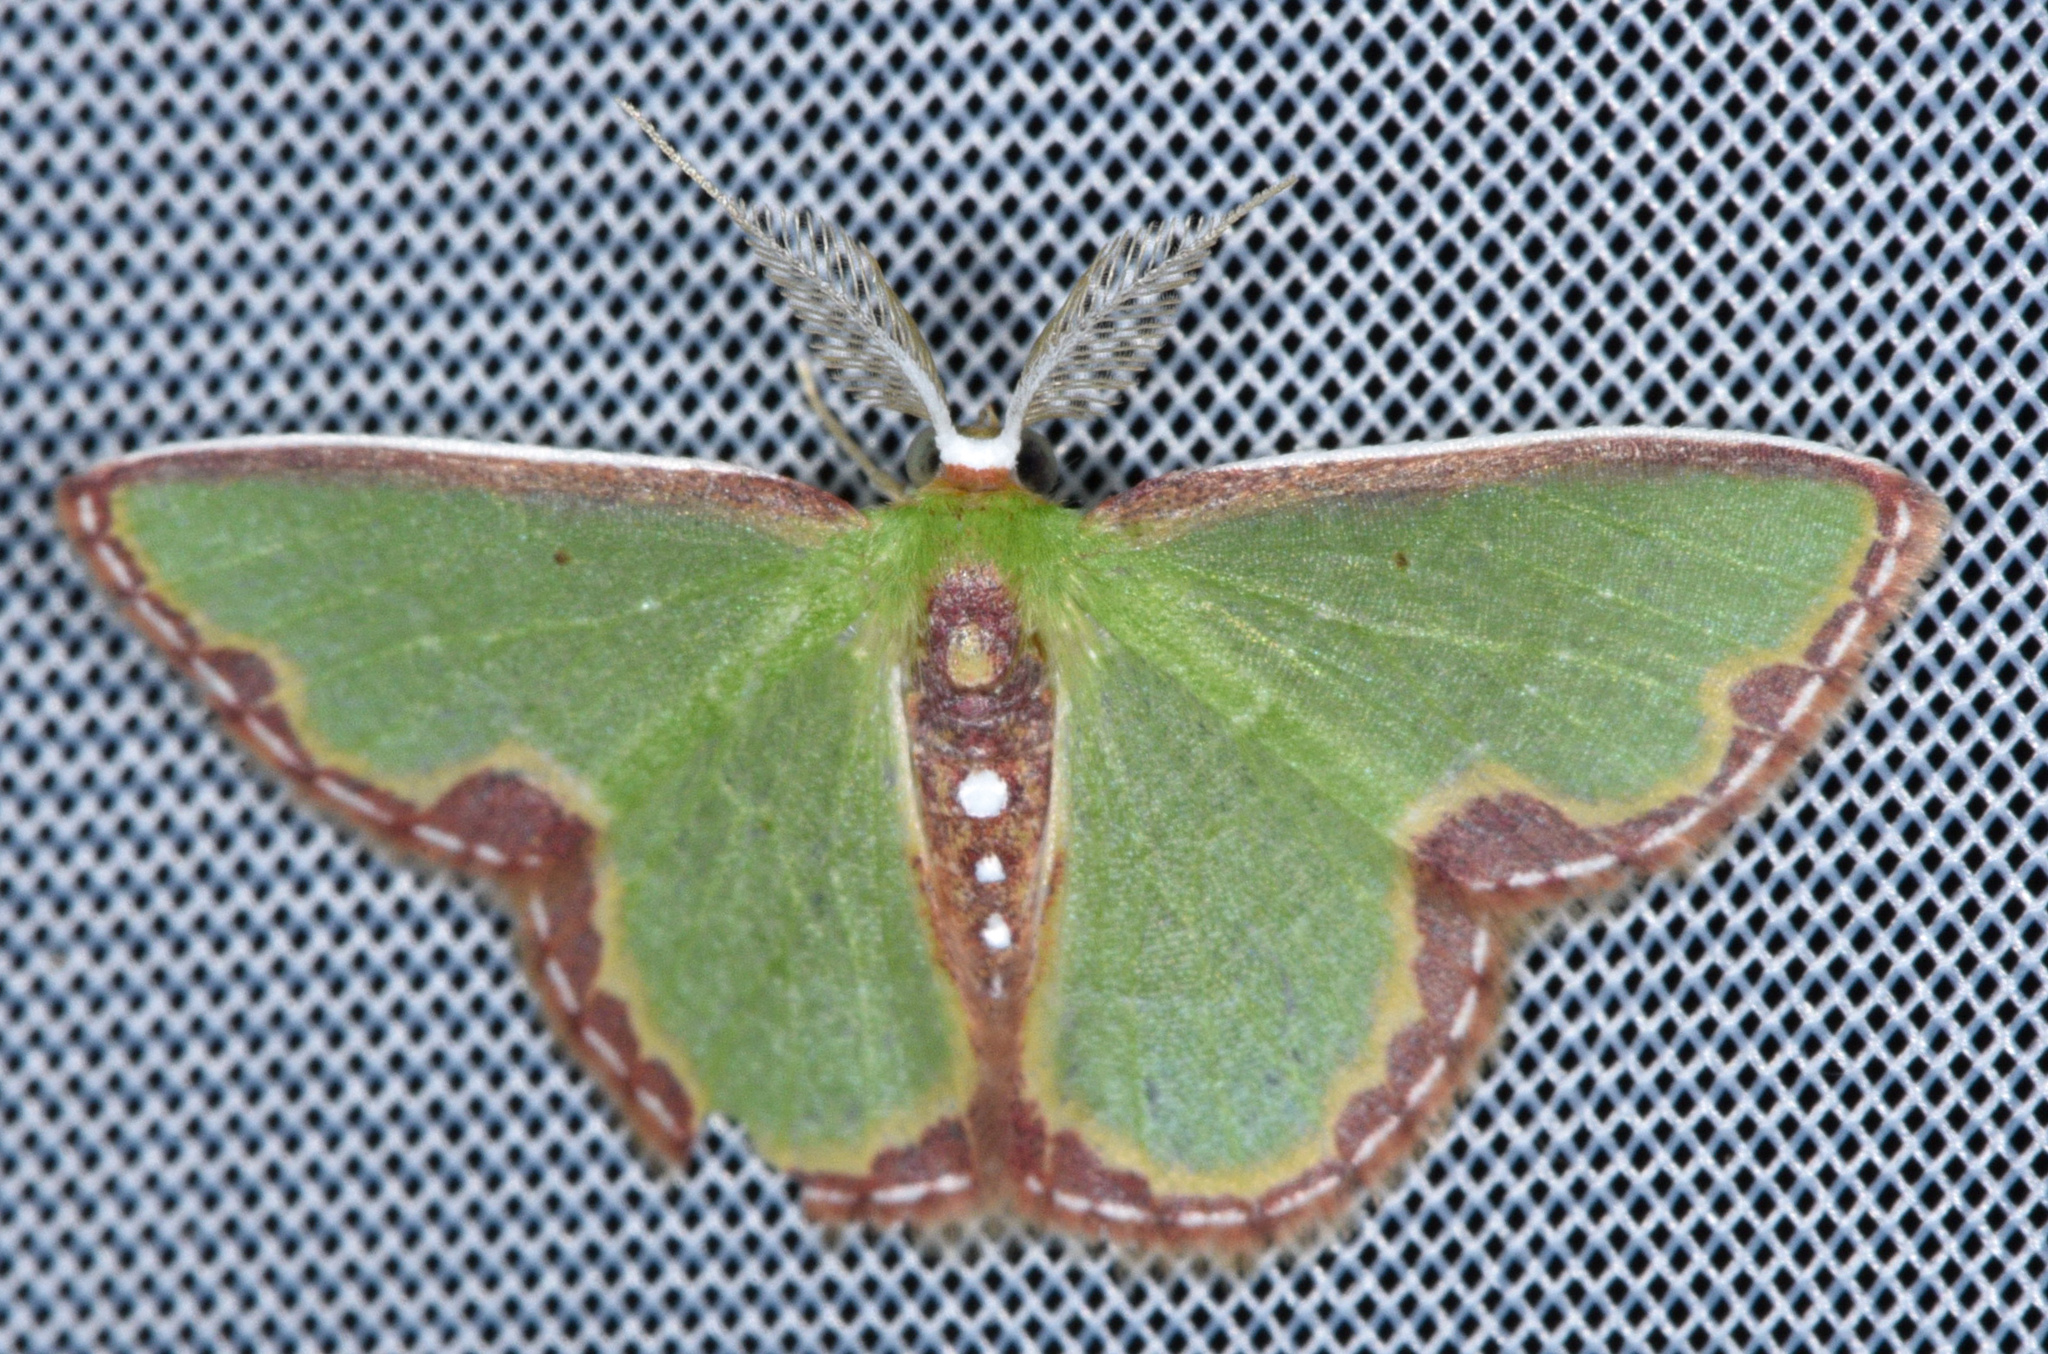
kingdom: Animalia
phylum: Arthropoda
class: Insecta
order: Lepidoptera
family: Geometridae
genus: Synchlora
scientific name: Synchlora expulsata
